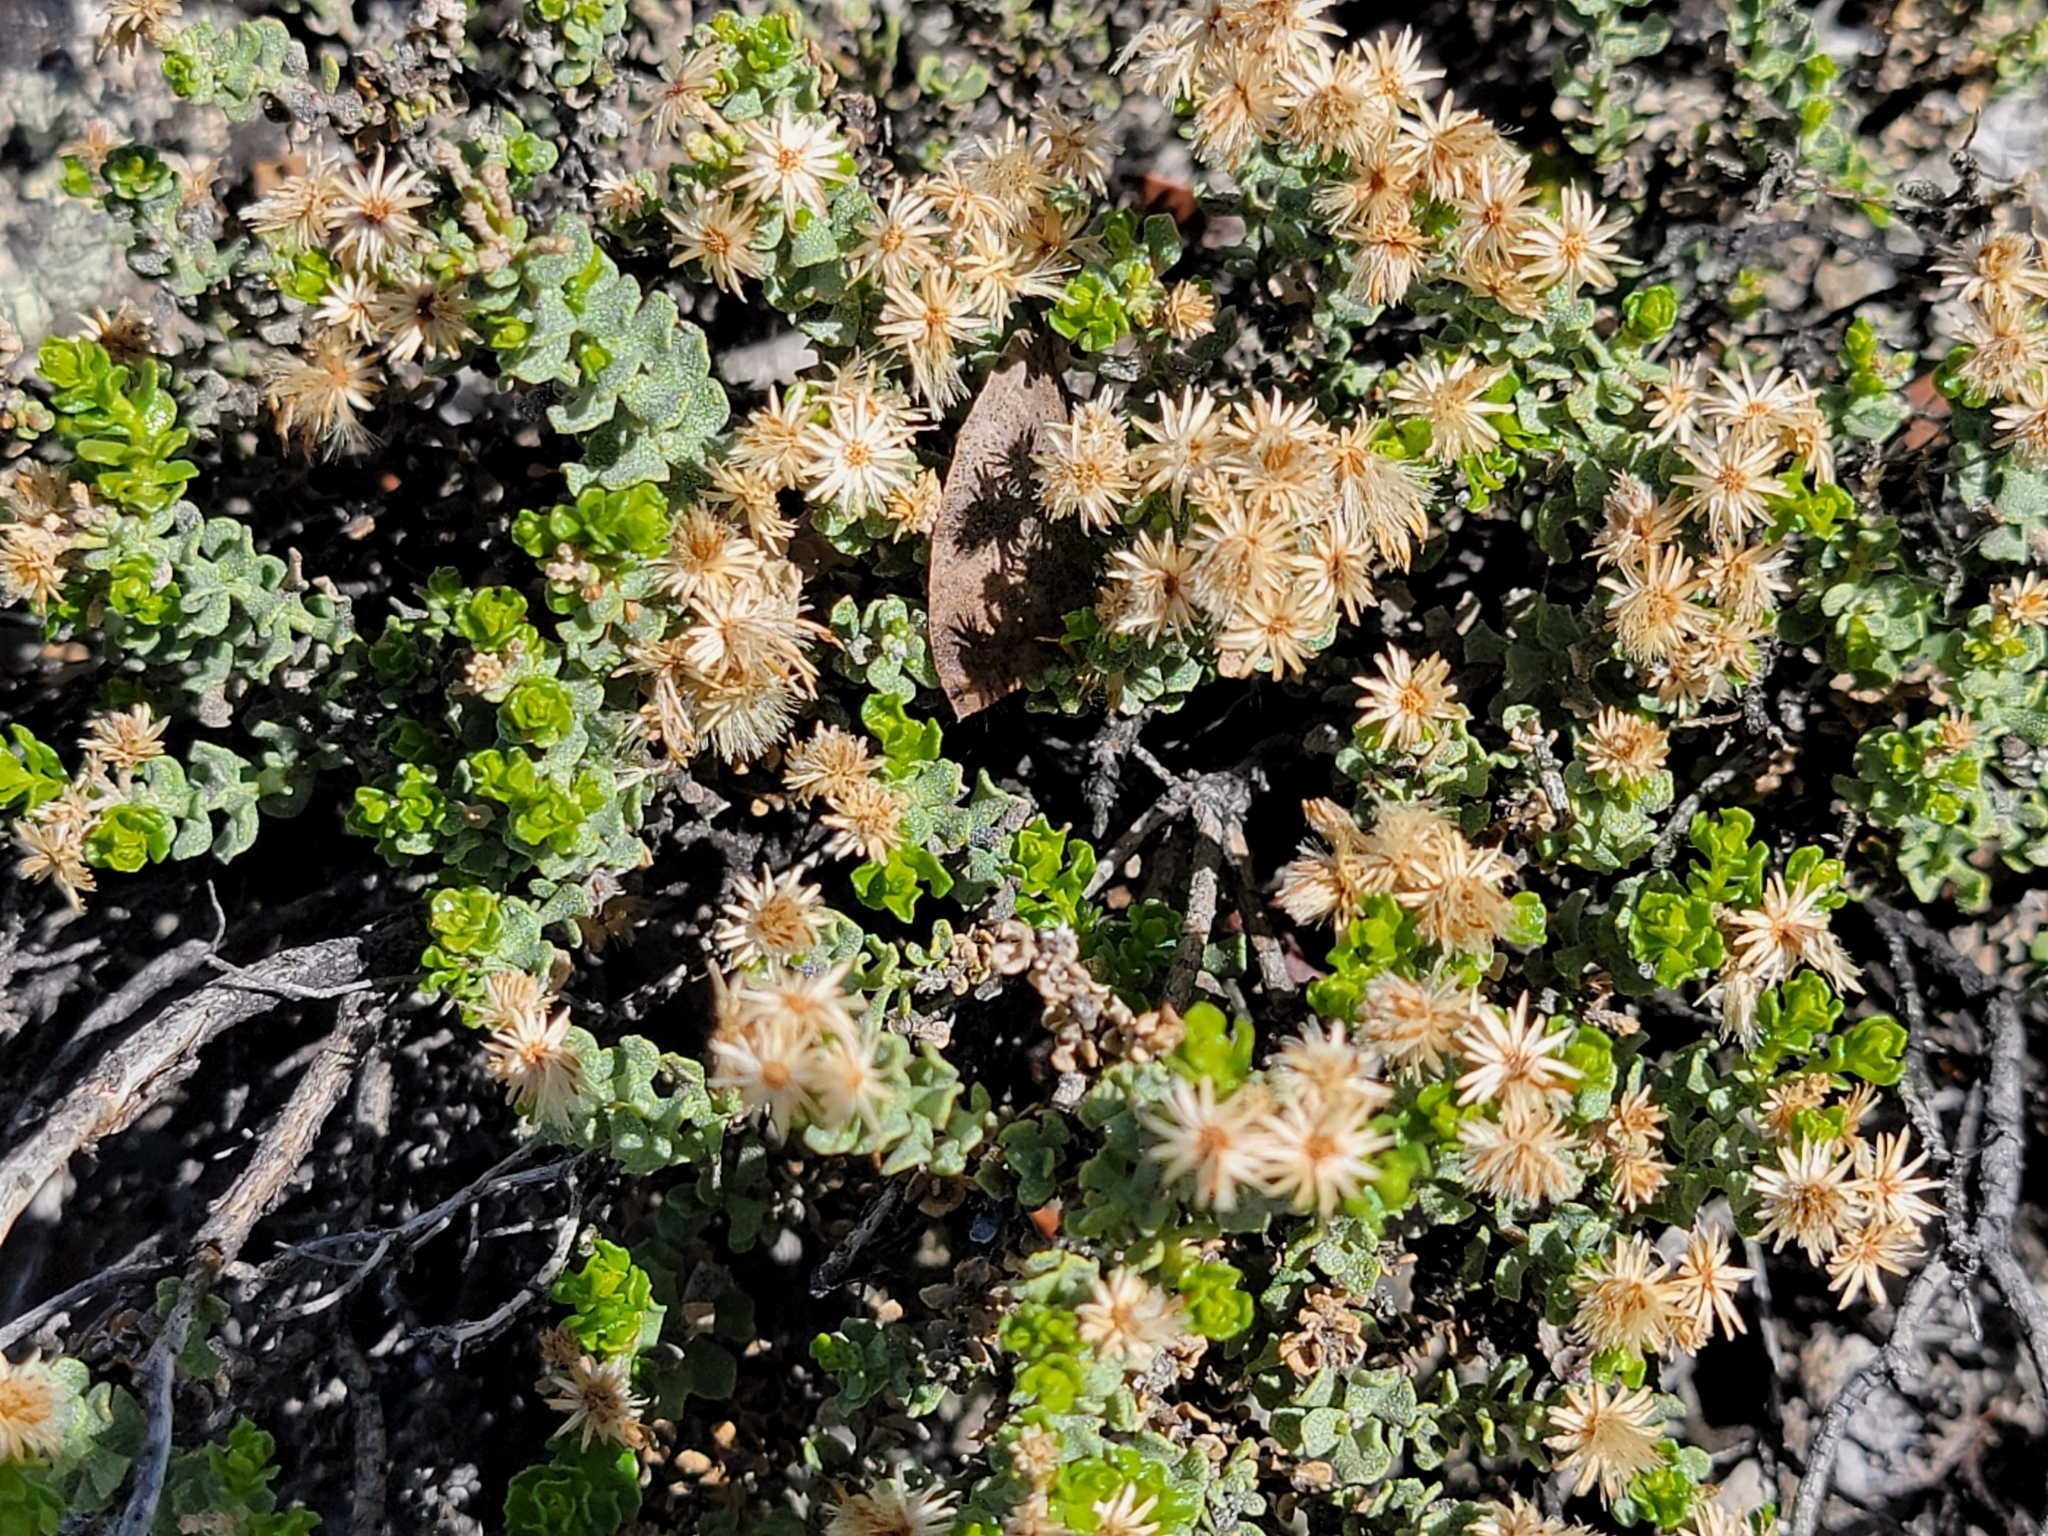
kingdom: Plantae
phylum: Tracheophyta
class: Magnoliopsida
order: Asterales
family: Asteraceae
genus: Ericameria
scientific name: Ericameria cuneata
